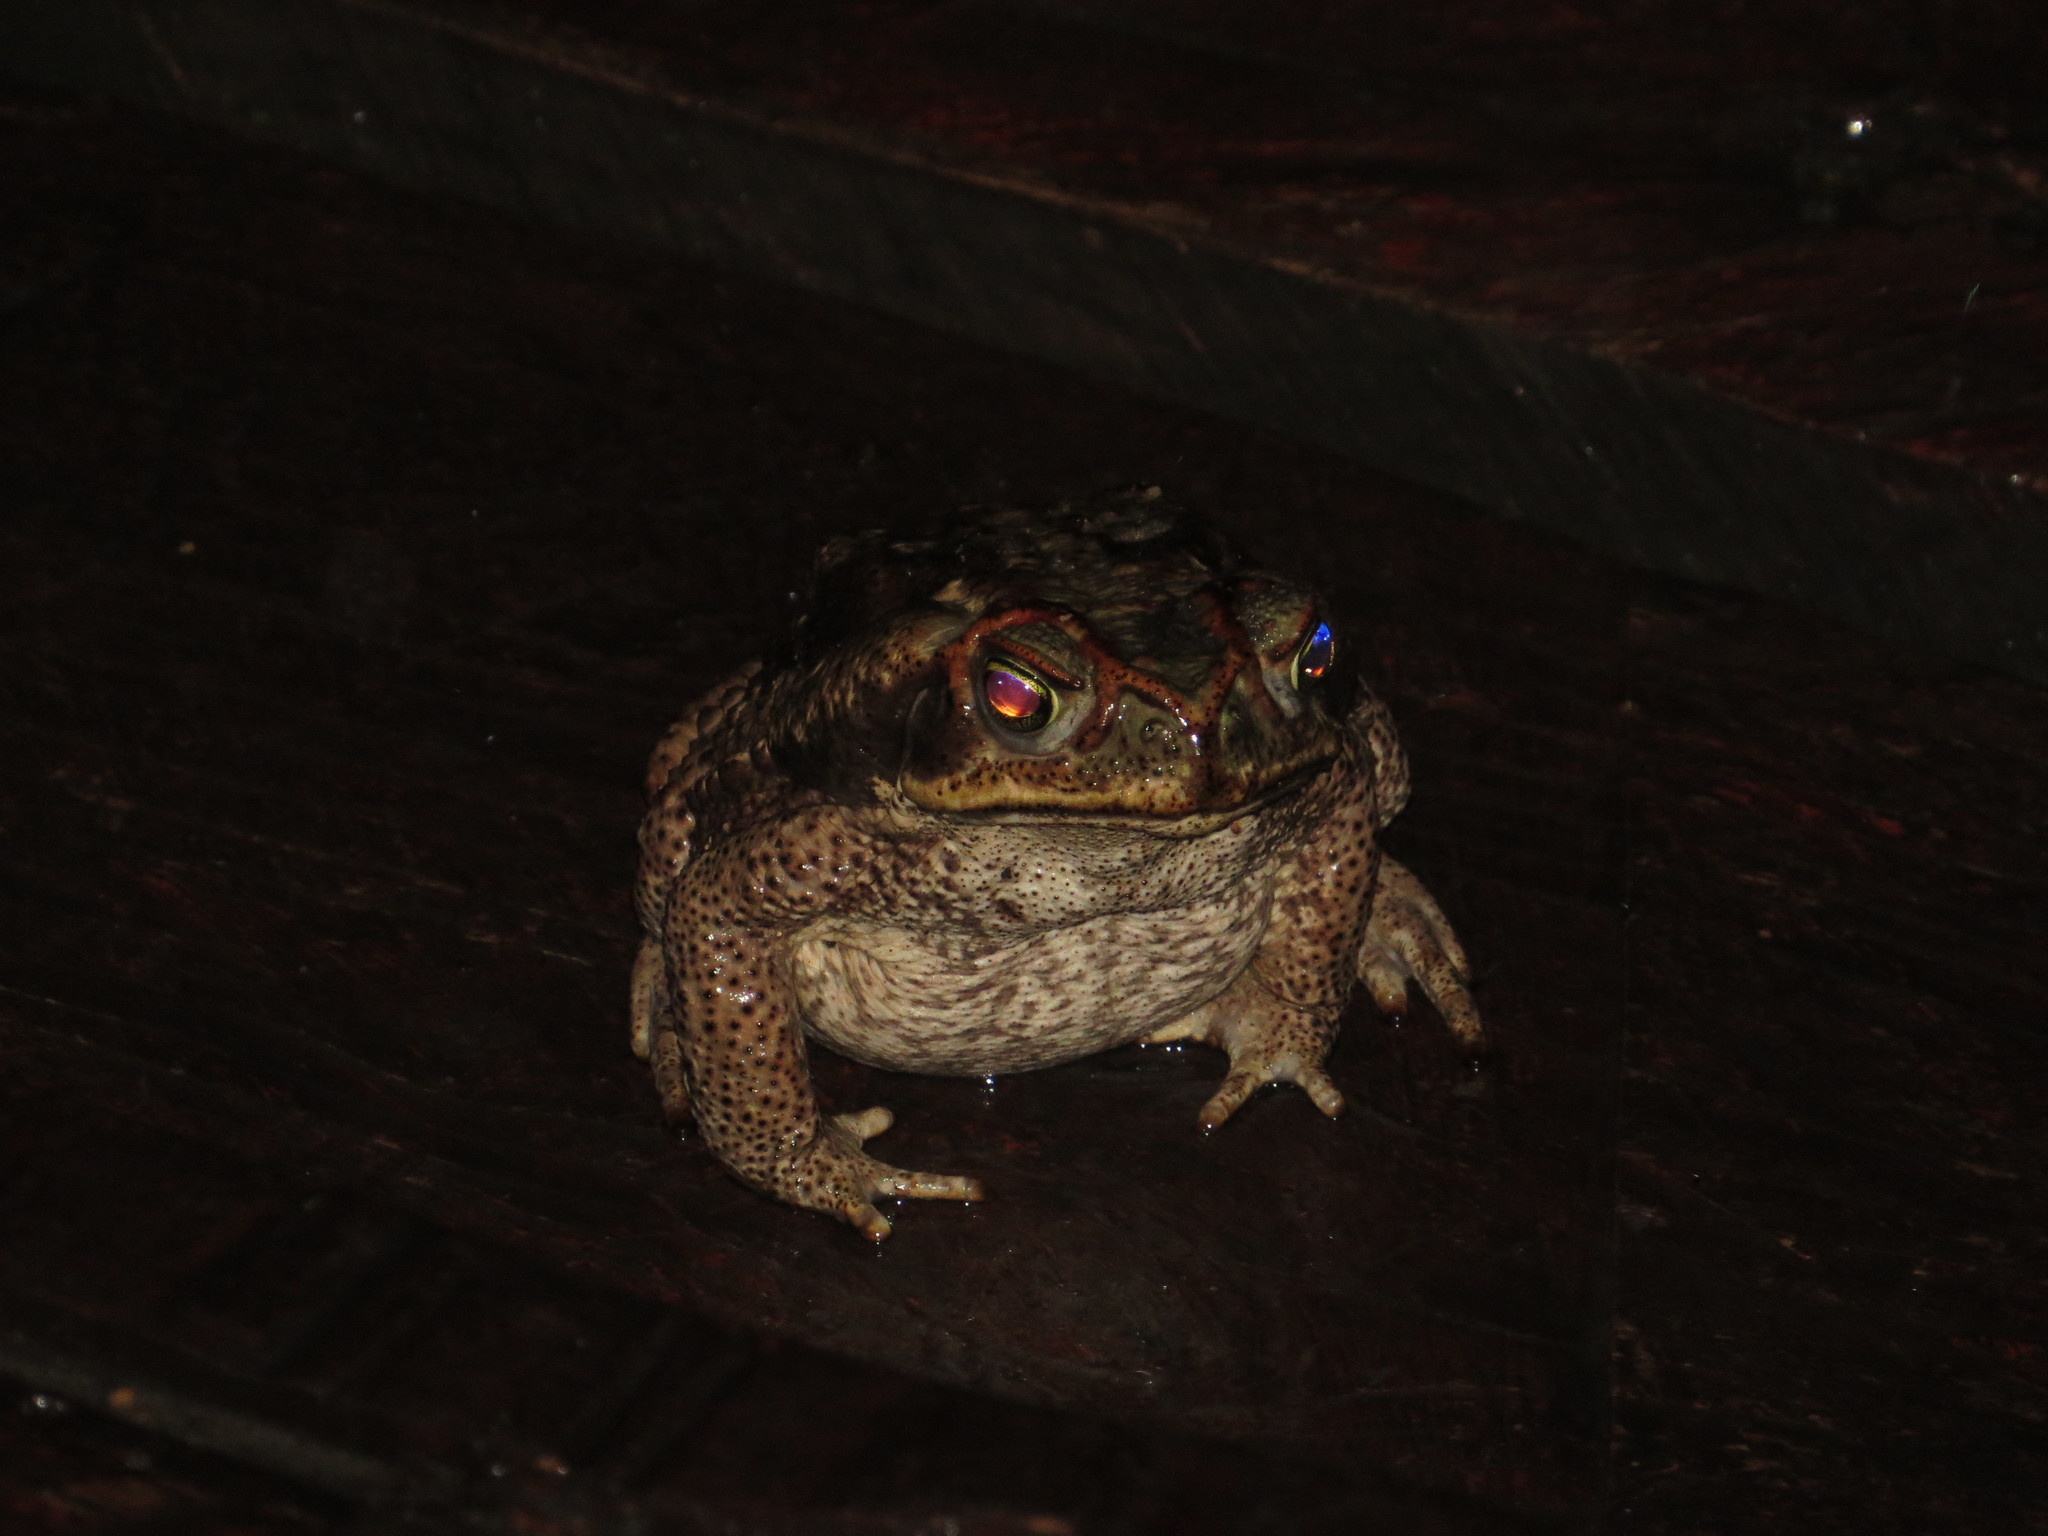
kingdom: Animalia
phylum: Chordata
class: Amphibia
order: Anura
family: Bufonidae
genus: Rhinella
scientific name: Rhinella diptycha
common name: Cope's toad
